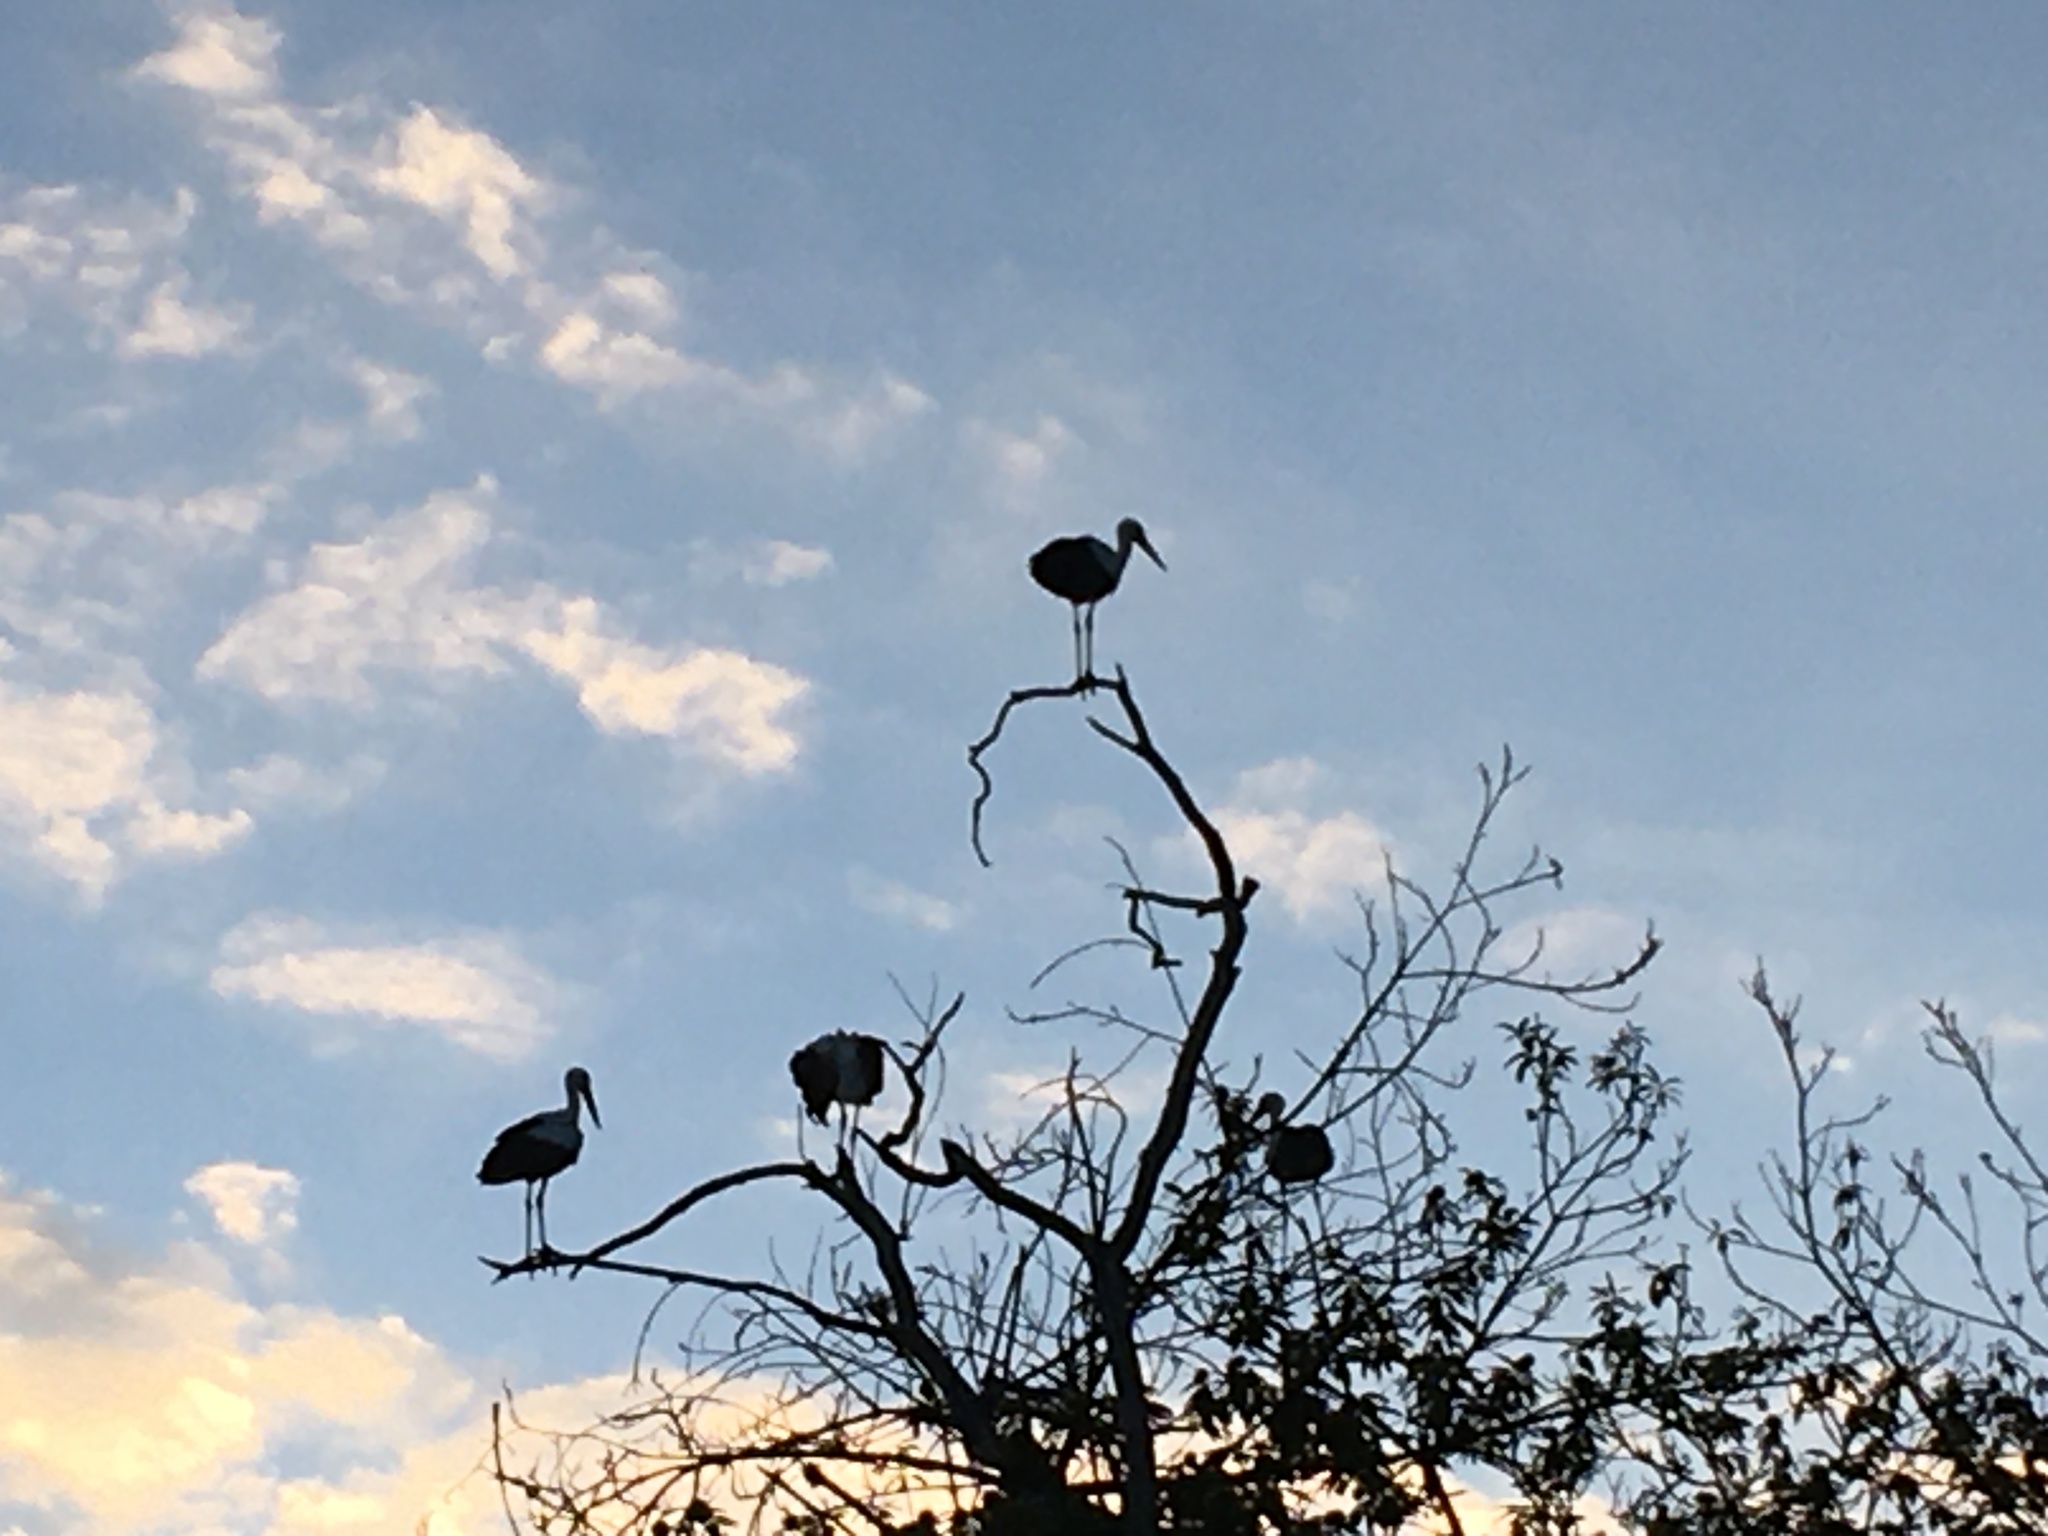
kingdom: Animalia
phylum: Chordata
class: Aves
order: Ciconiiformes
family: Ciconiidae
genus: Ciconia
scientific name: Ciconia ciconia
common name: White stork
